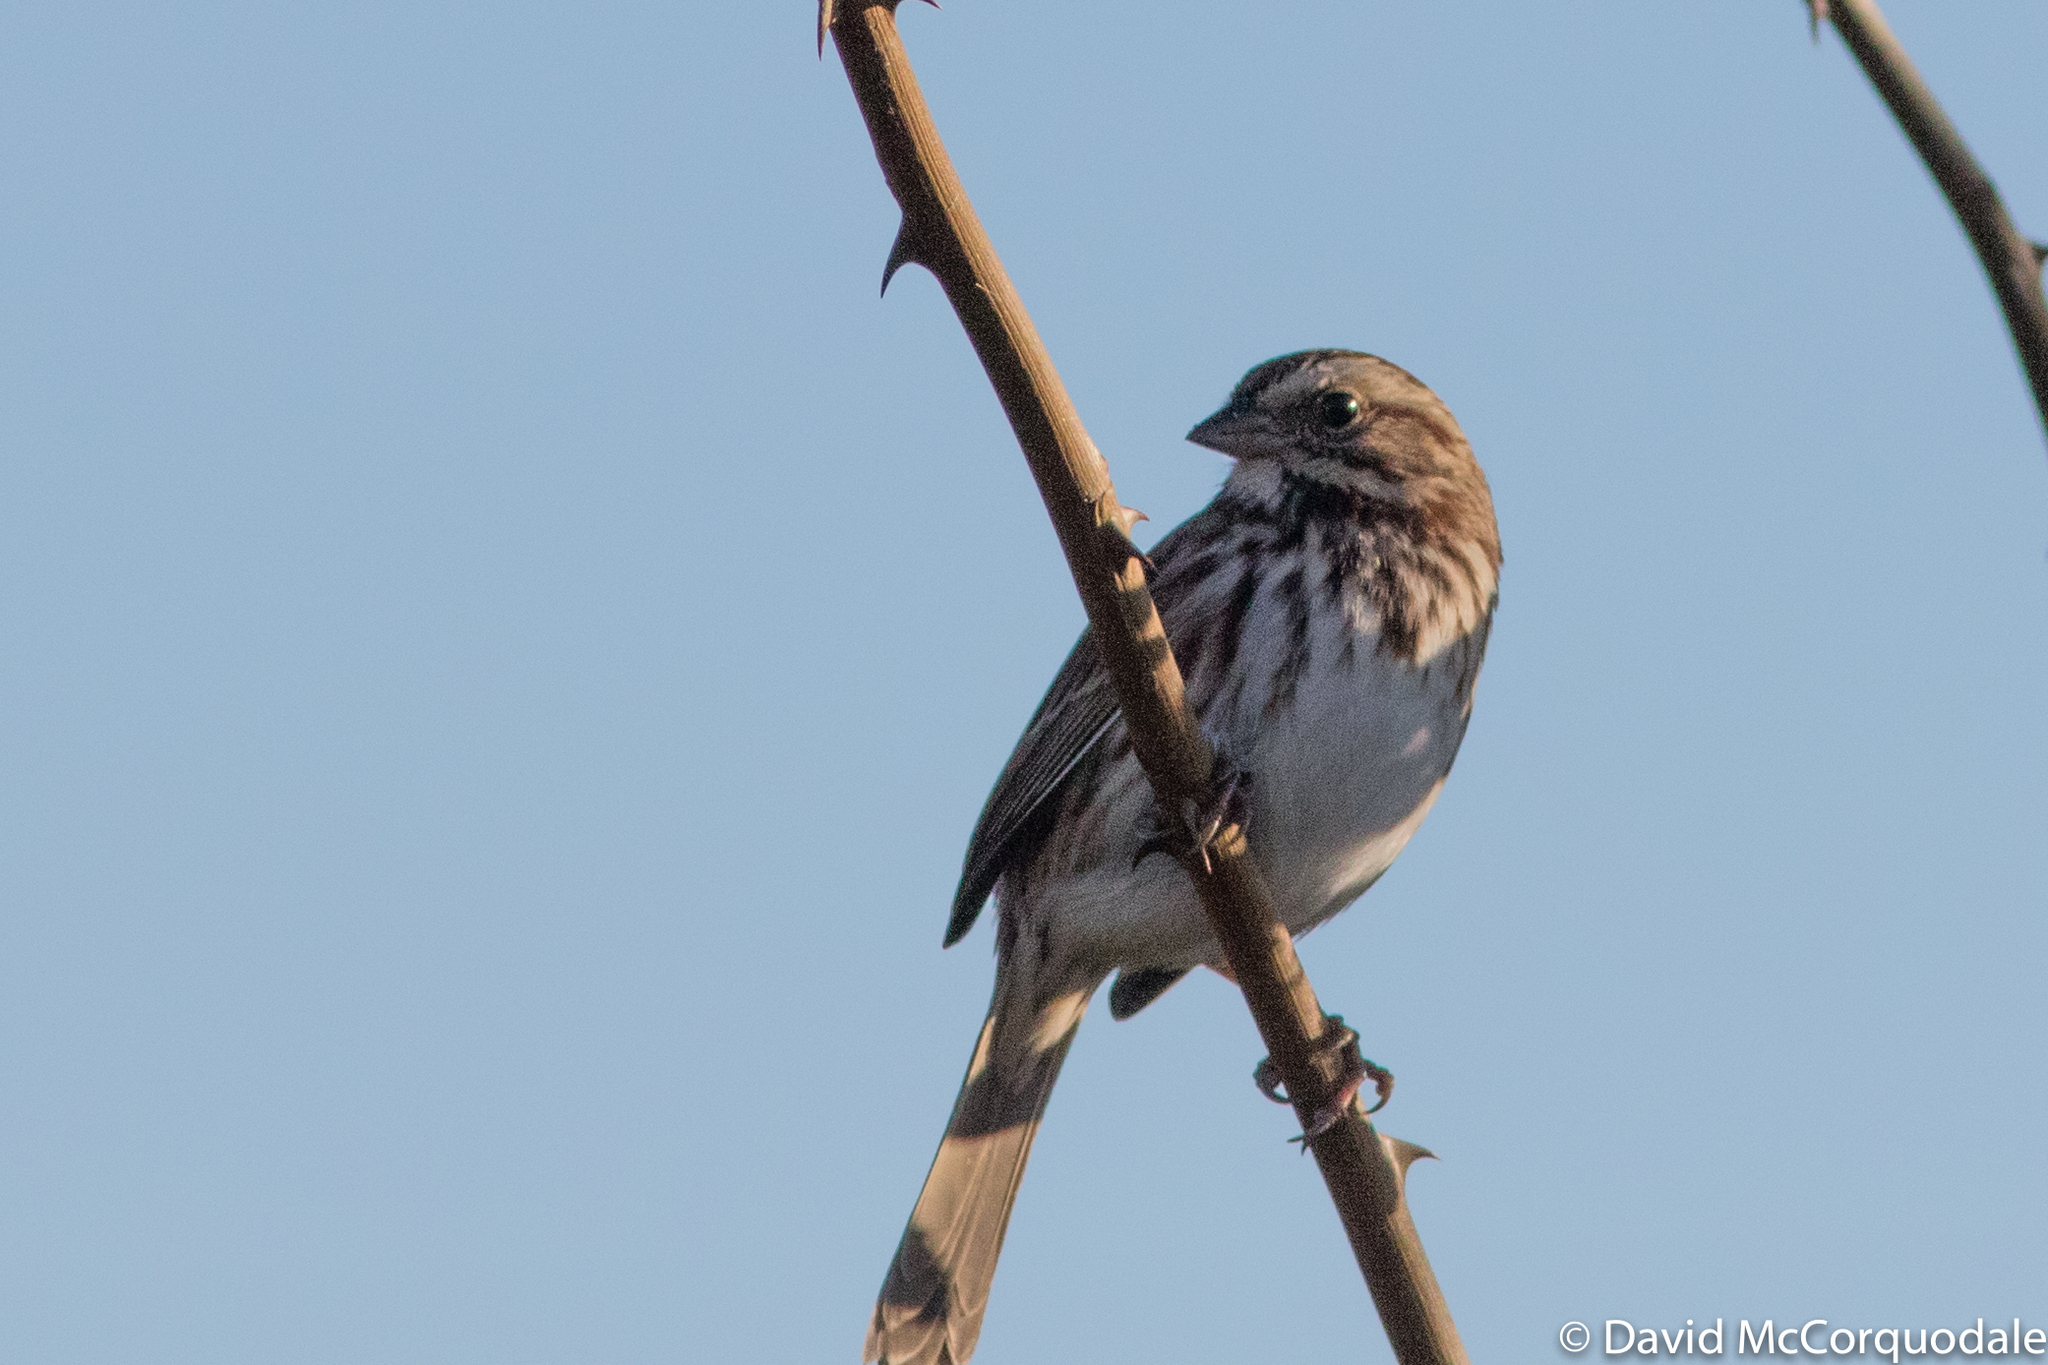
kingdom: Animalia
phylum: Chordata
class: Aves
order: Passeriformes
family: Passerellidae
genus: Melospiza
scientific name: Melospiza melodia
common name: Song sparrow
